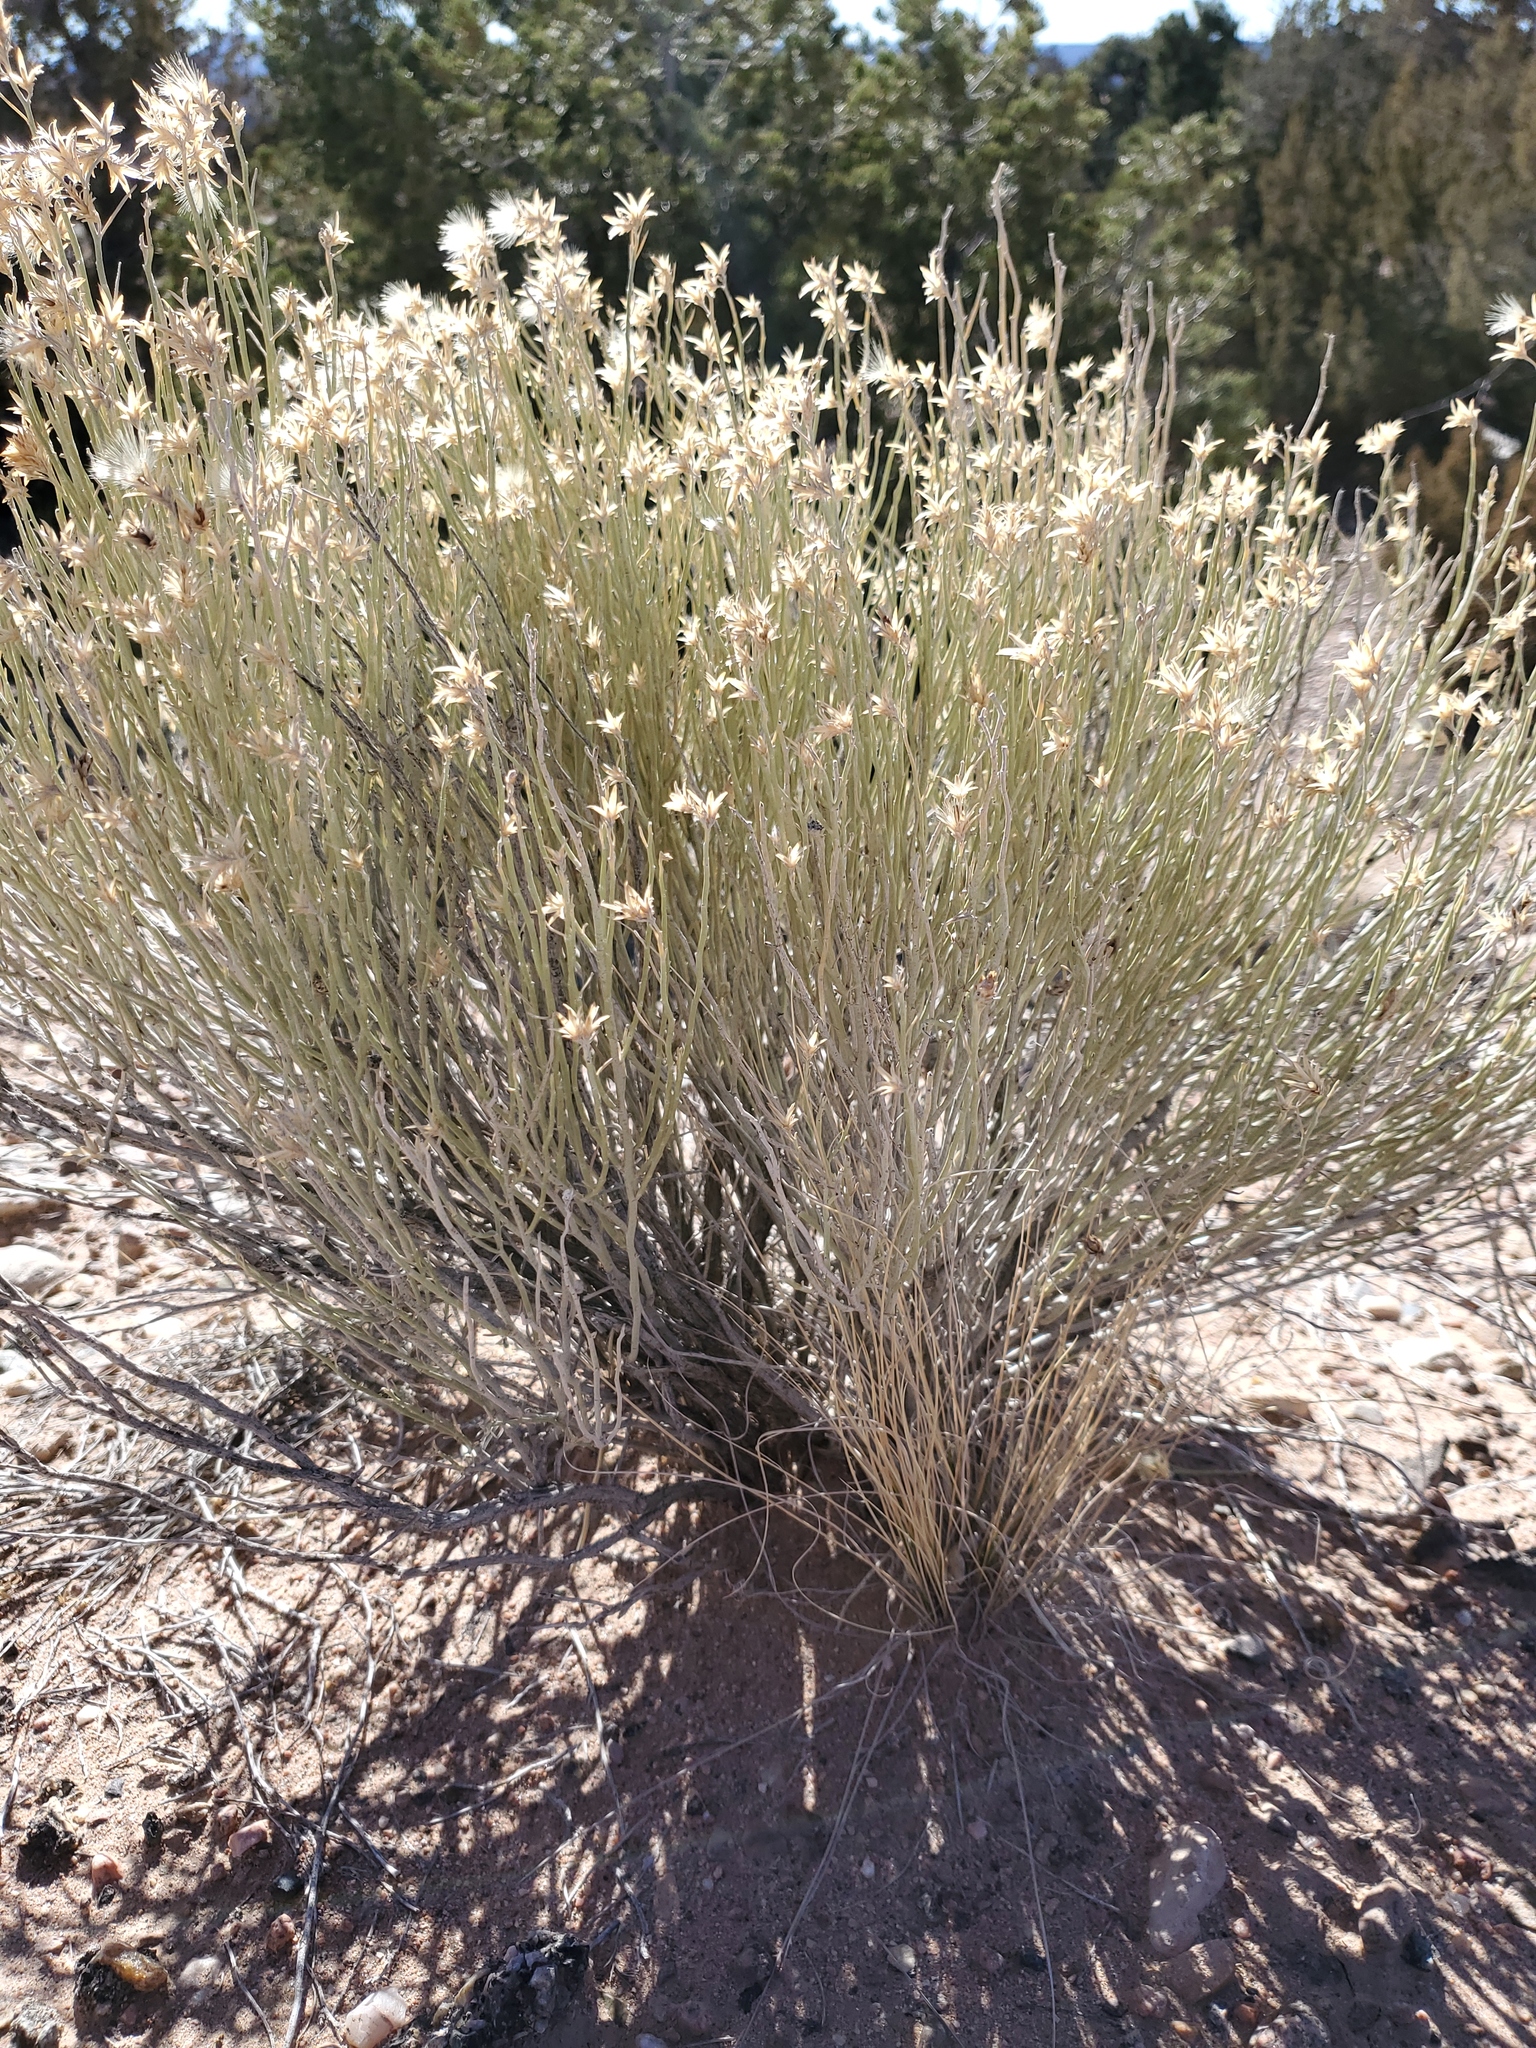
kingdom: Plantae
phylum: Tracheophyta
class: Magnoliopsida
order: Asterales
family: Asteraceae
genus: Ericameria
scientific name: Ericameria nauseosa
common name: Rubber rabbitbrush
